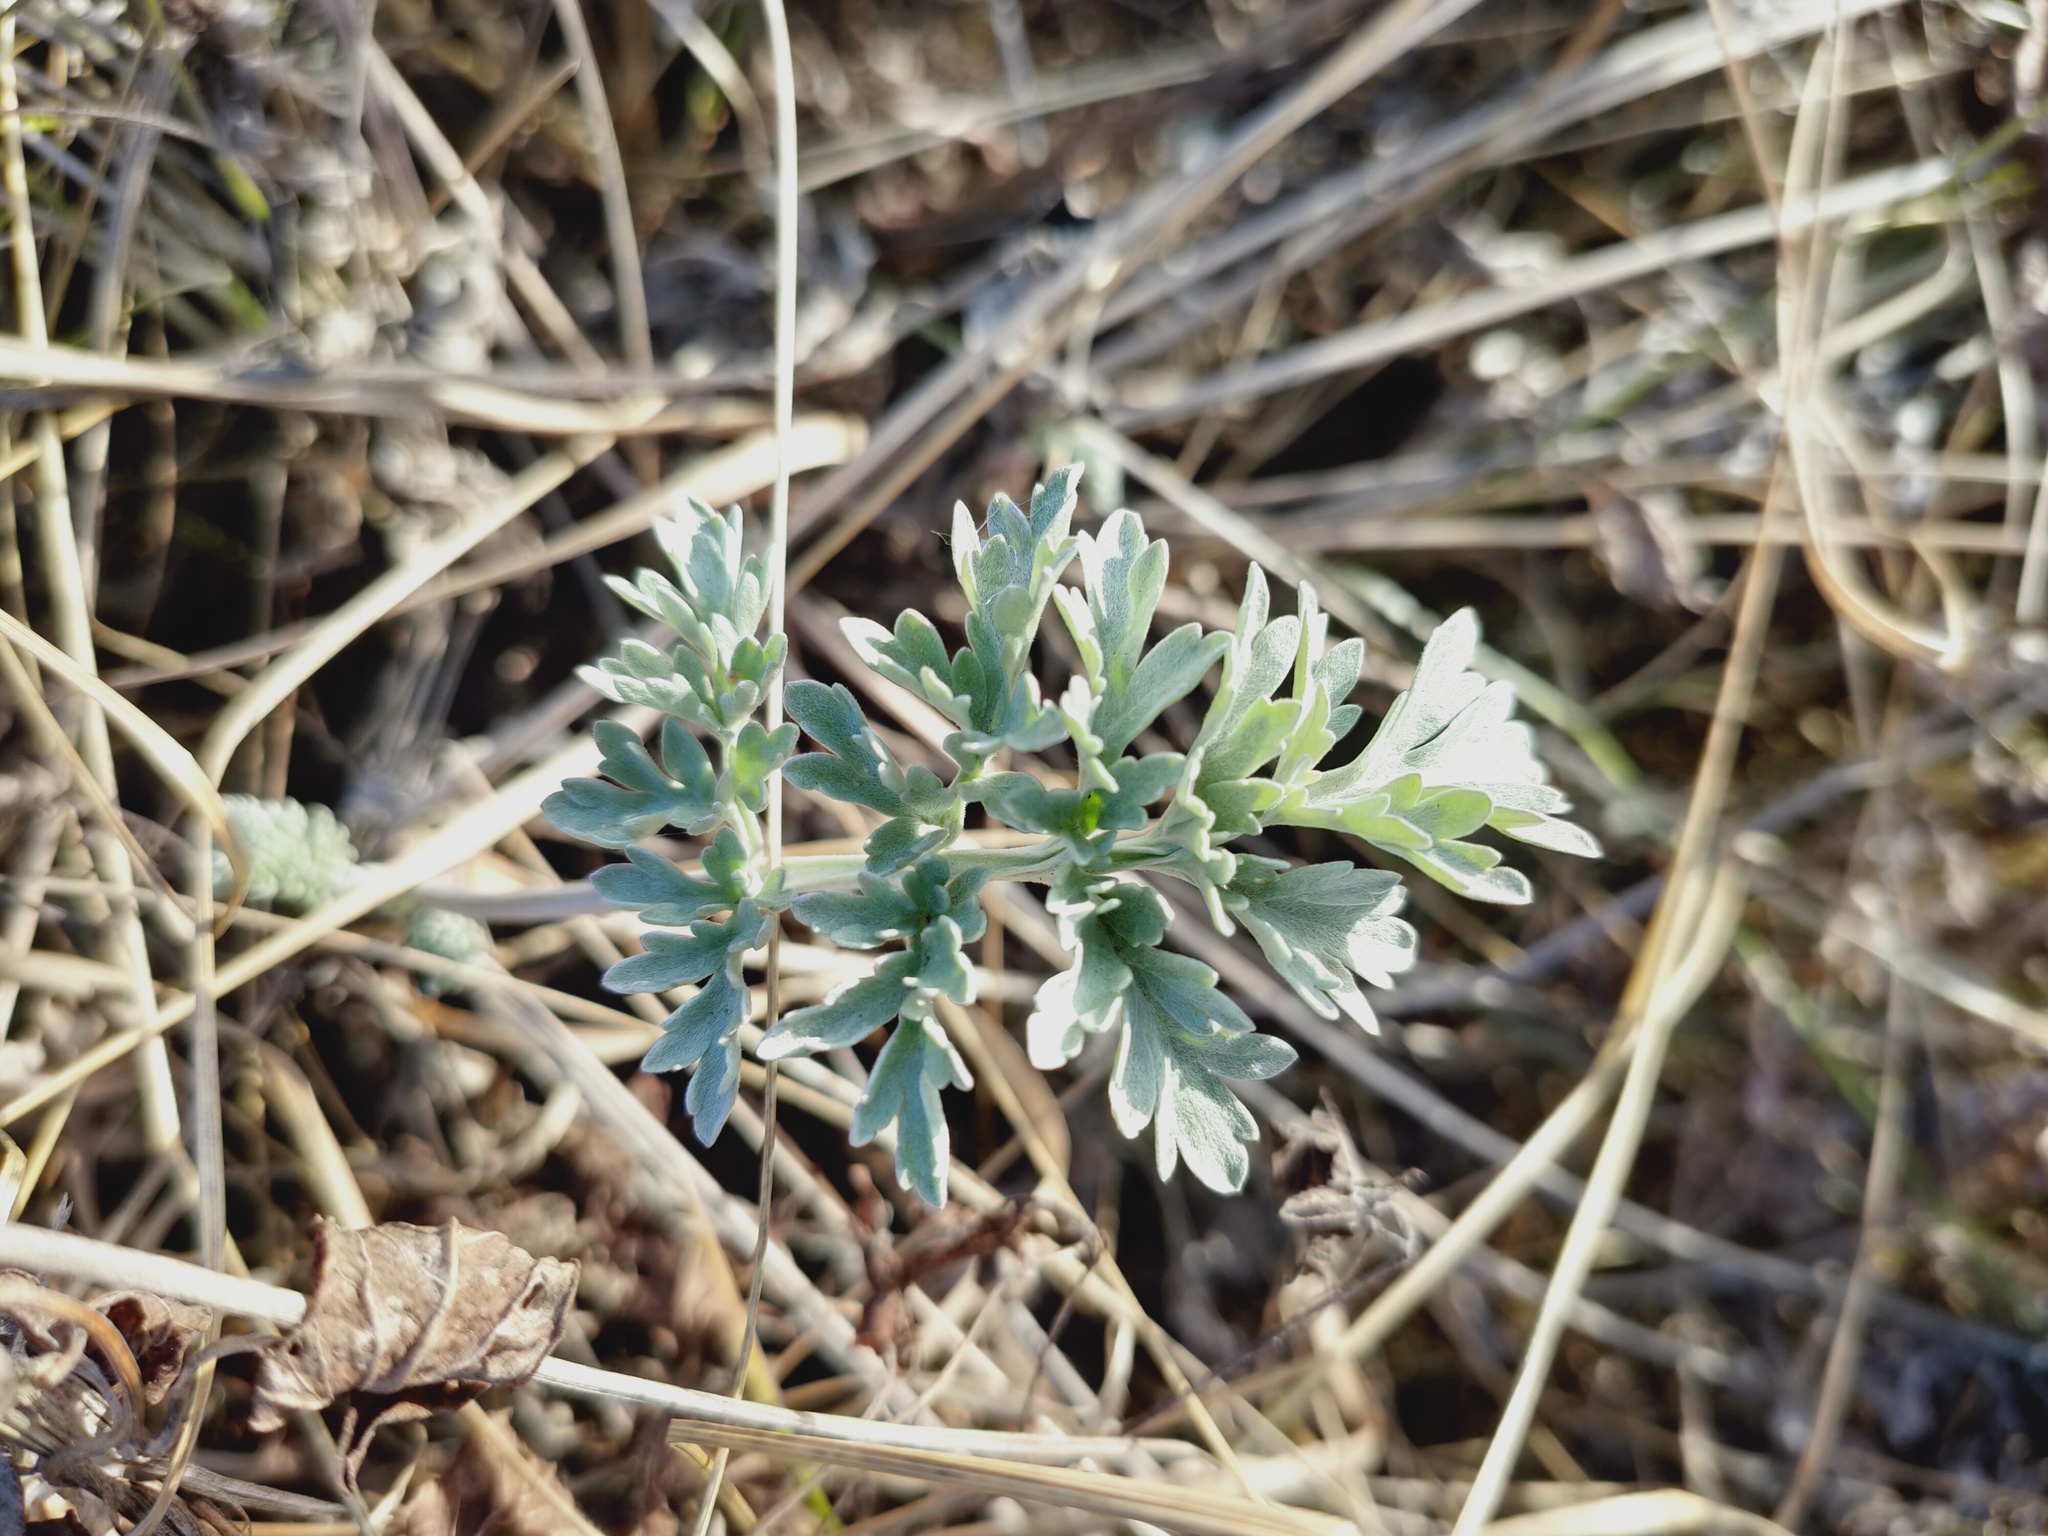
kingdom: Plantae
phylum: Tracheophyta
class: Magnoliopsida
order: Asterales
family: Asteraceae
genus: Artemisia
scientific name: Artemisia absinthium
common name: Wormwood
